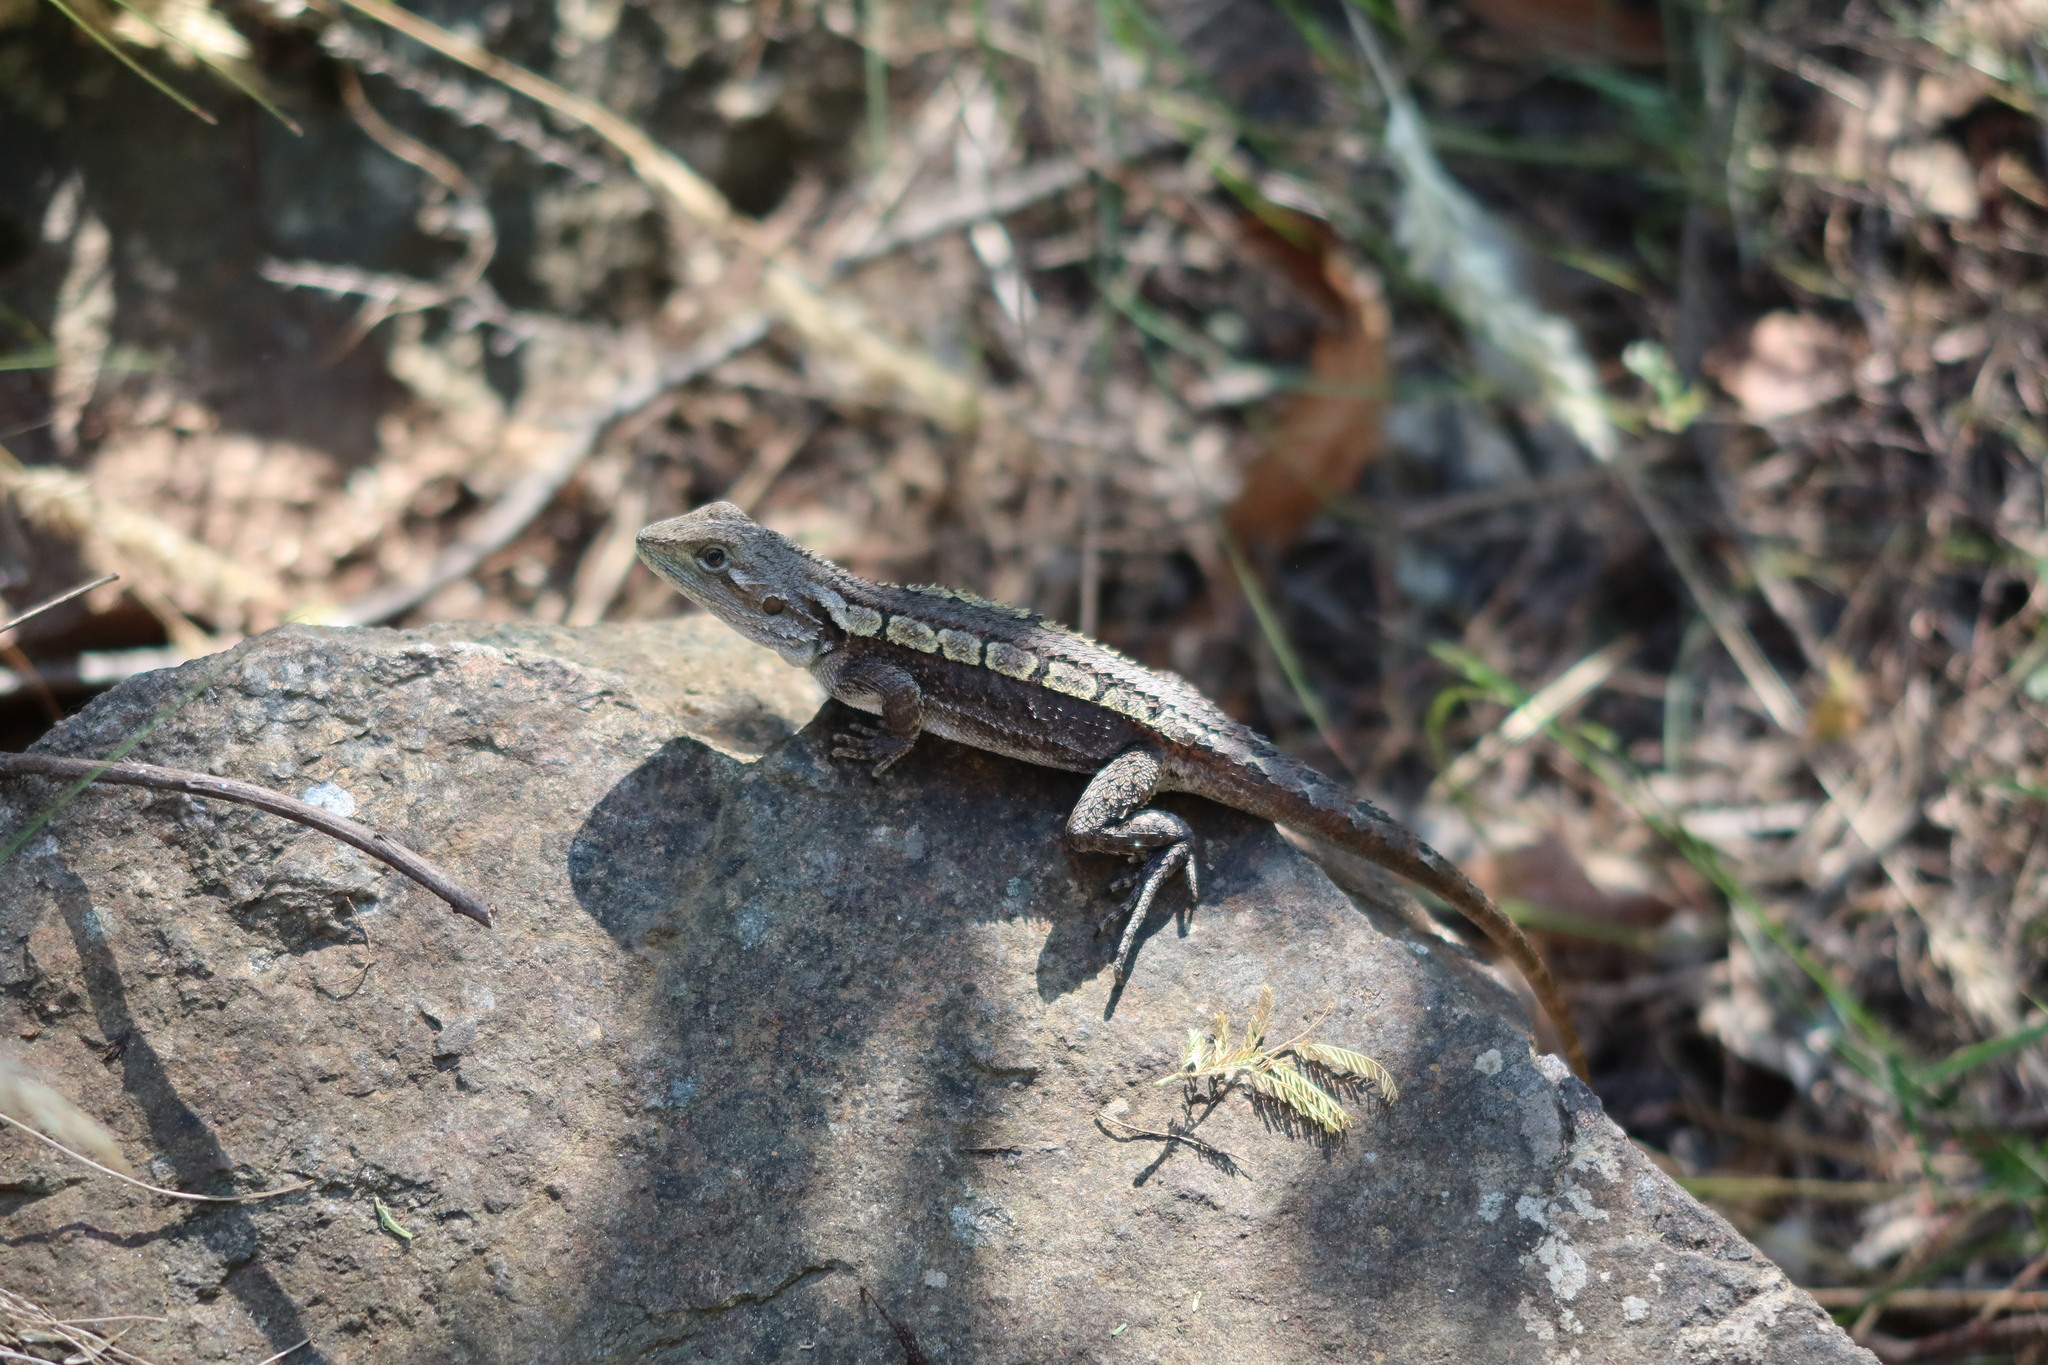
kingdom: Animalia
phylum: Chordata
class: Squamata
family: Agamidae
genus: Amphibolurus
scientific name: Amphibolurus muricatus
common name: Jacky lizard
